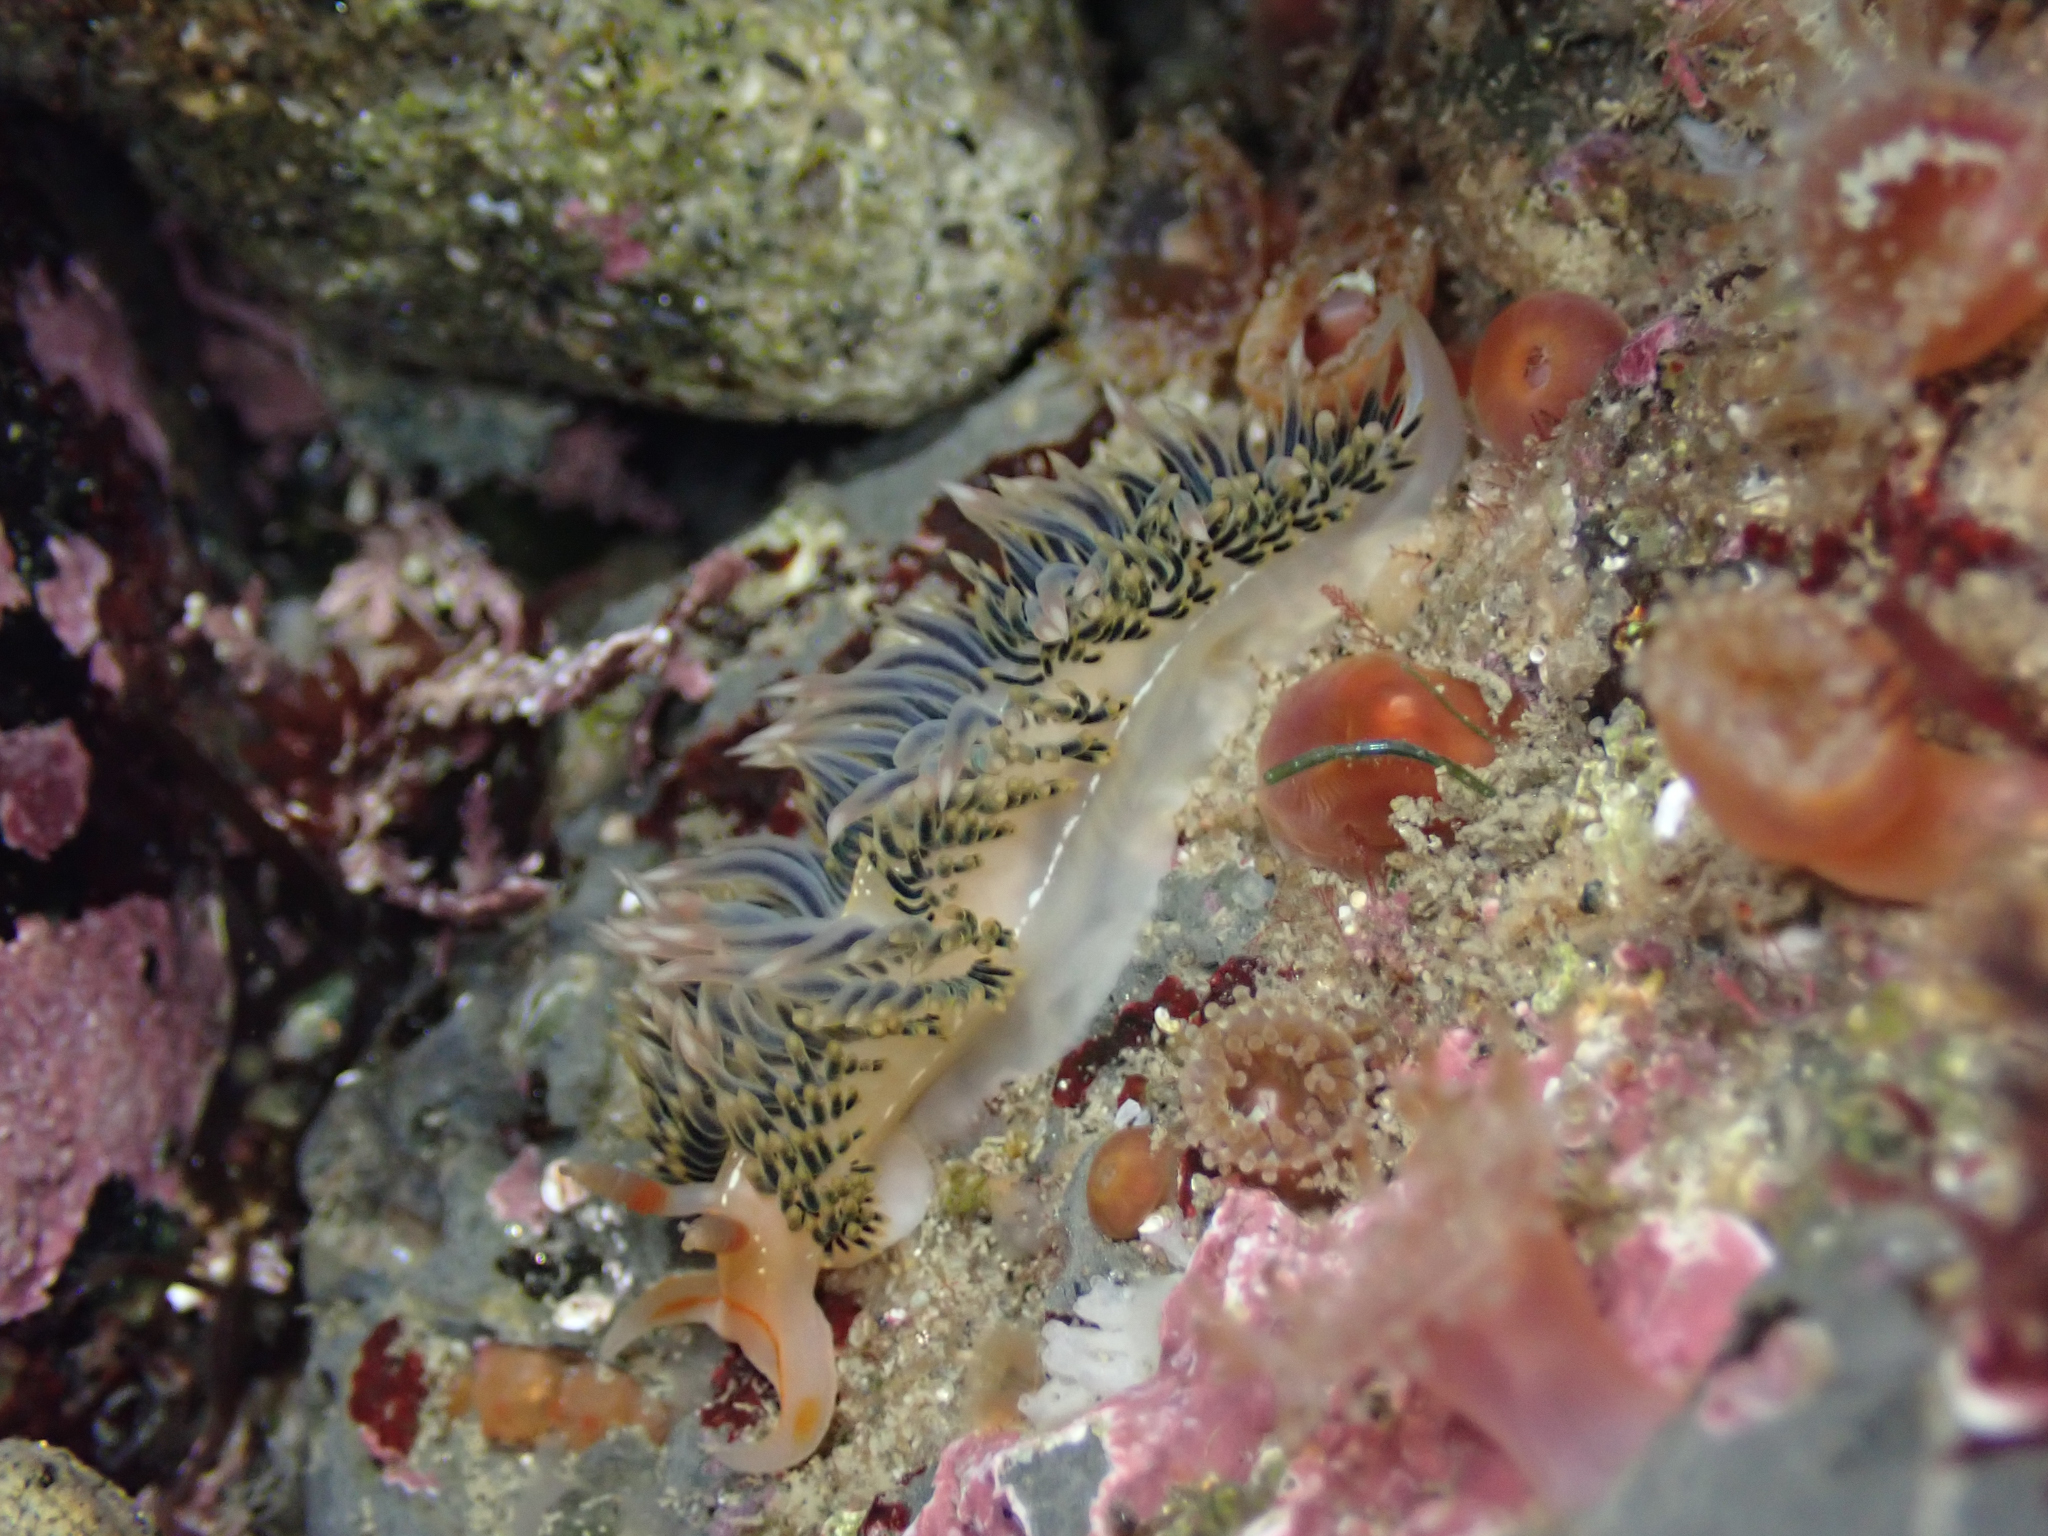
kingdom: Animalia
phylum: Mollusca
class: Gastropoda
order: Nudibranchia
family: Facelinidae
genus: Phidiana
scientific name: Phidiana hiltoni
